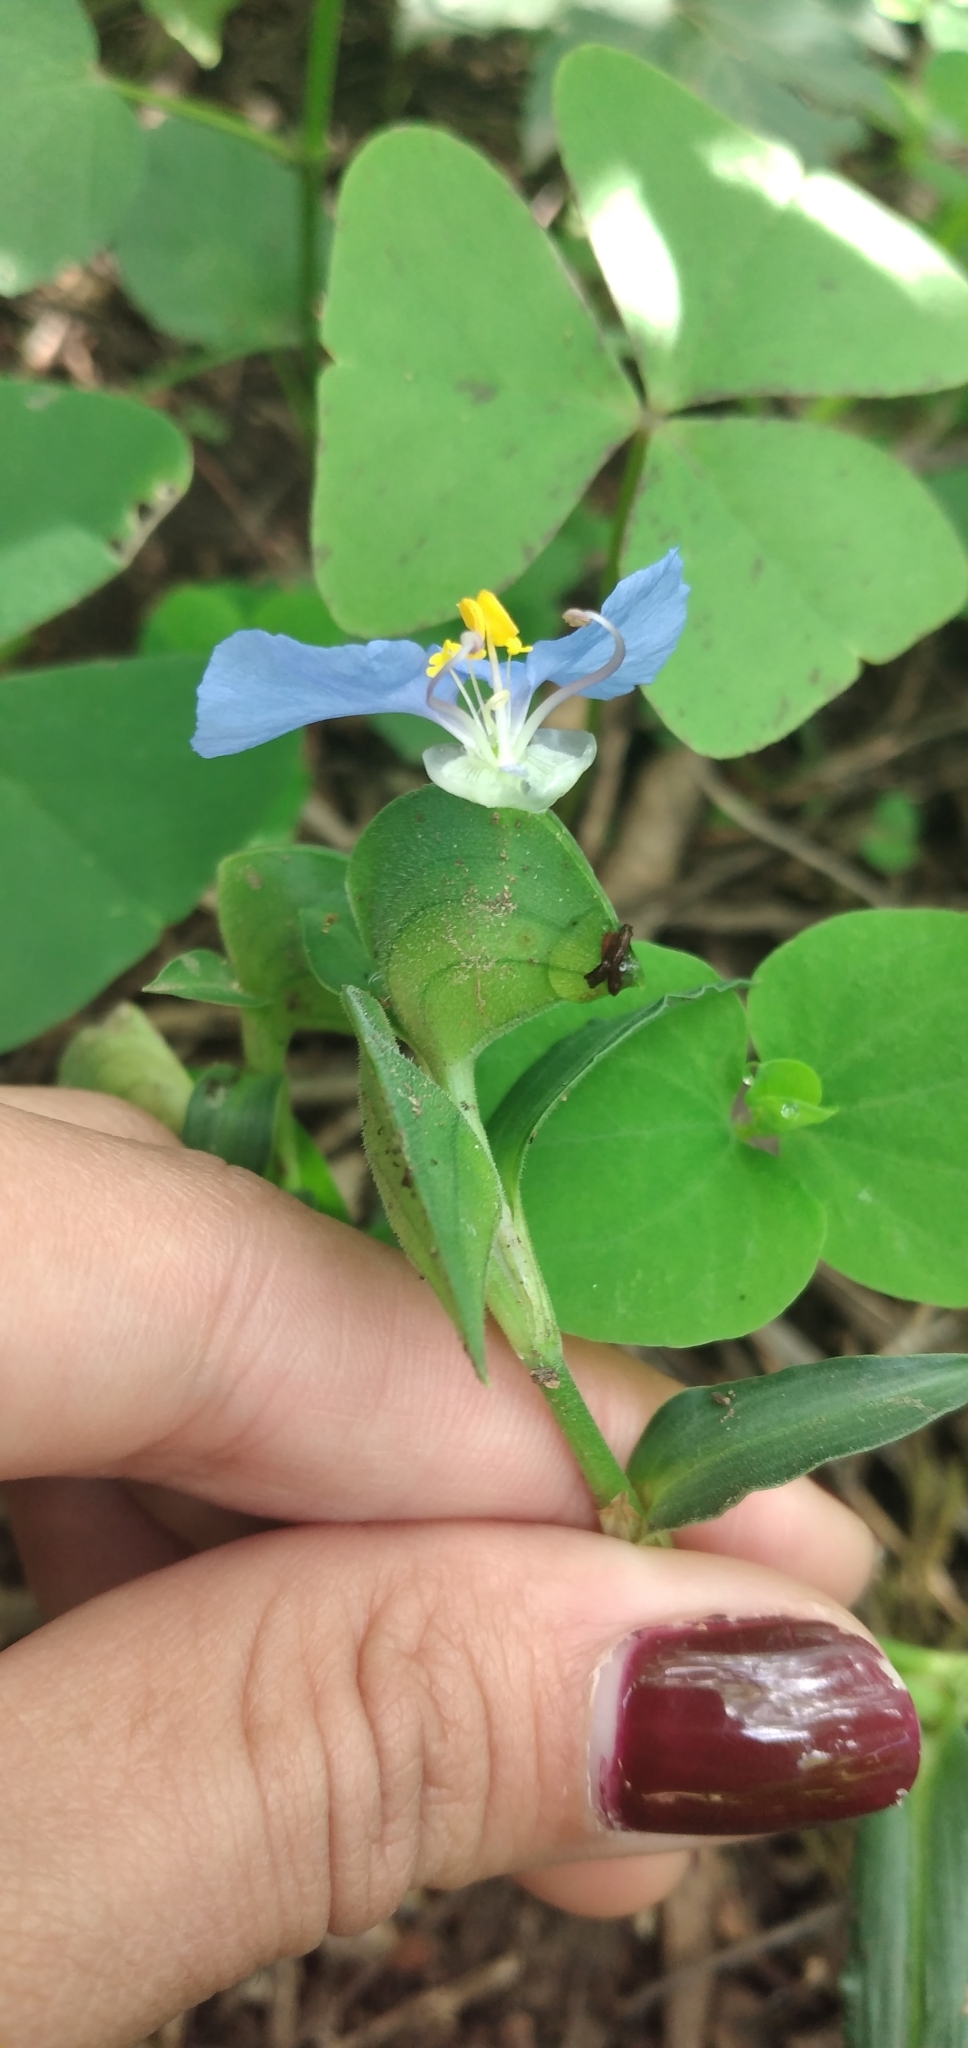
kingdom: Plantae
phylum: Tracheophyta
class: Liliopsida
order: Commelinales
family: Commelinaceae
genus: Commelina
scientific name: Commelina erecta
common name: Blousel blommetjie
